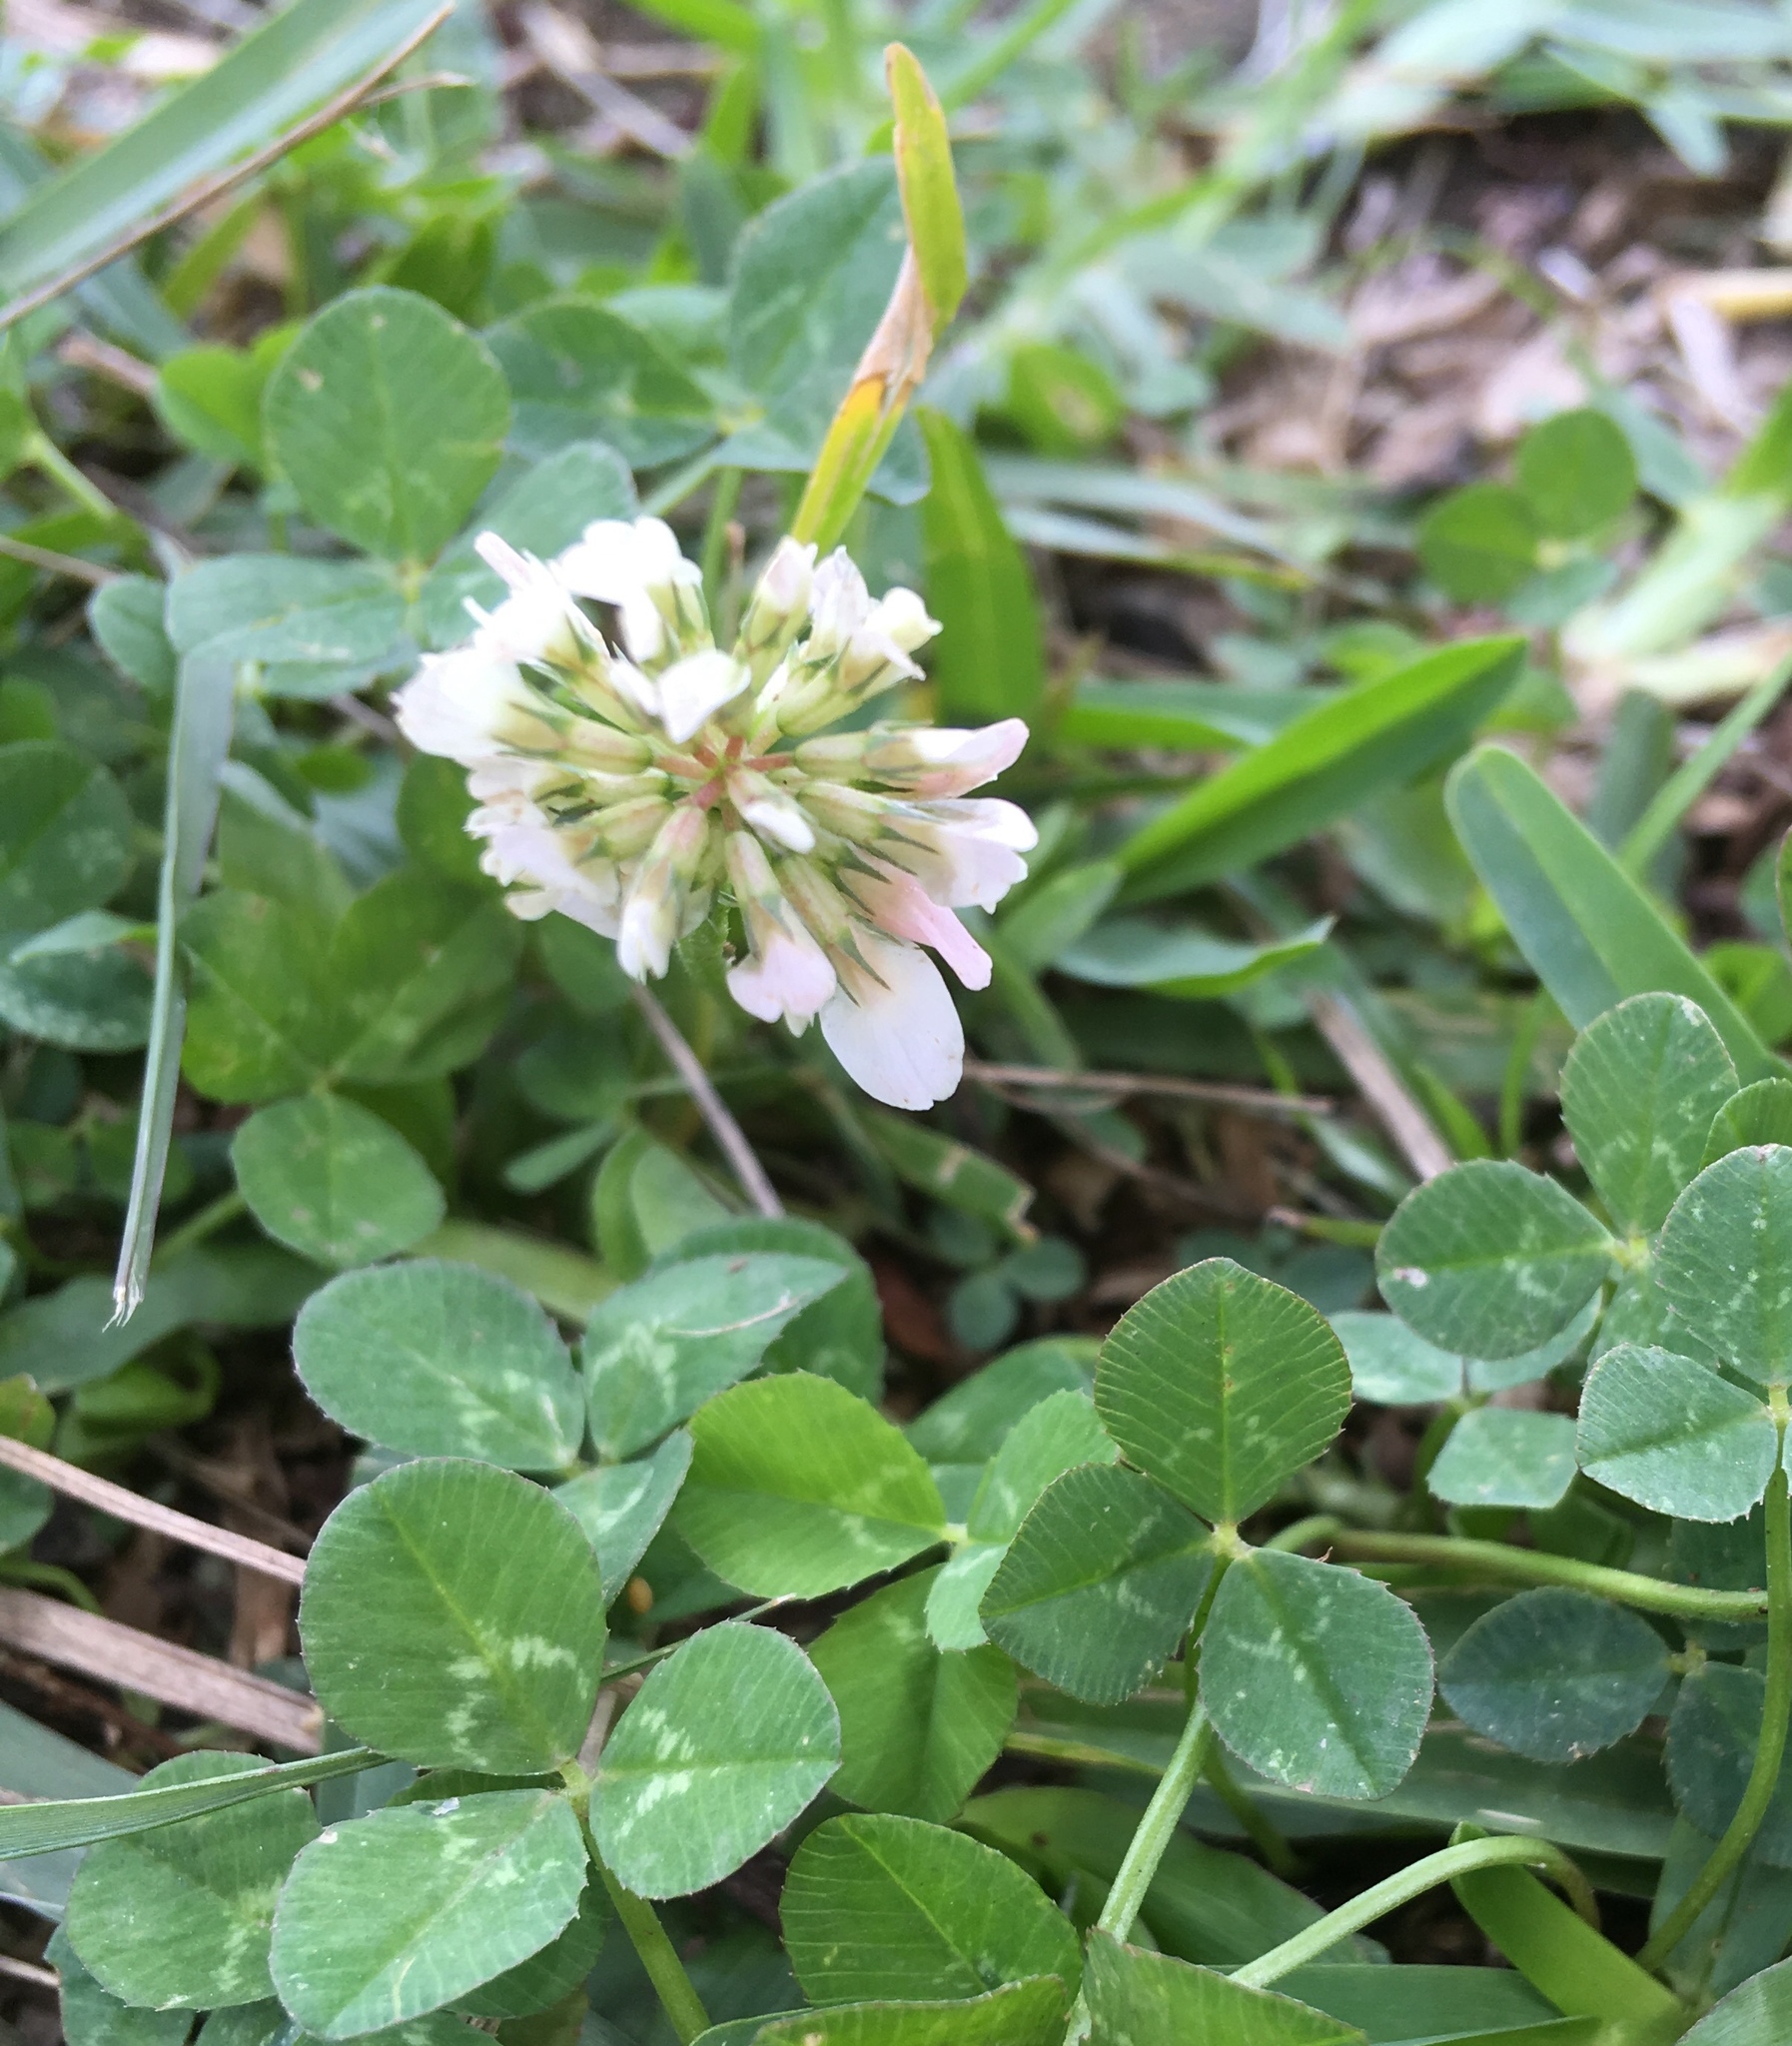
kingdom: Plantae
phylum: Tracheophyta
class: Magnoliopsida
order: Fabales
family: Fabaceae
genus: Trifolium
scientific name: Trifolium repens
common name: White clover
